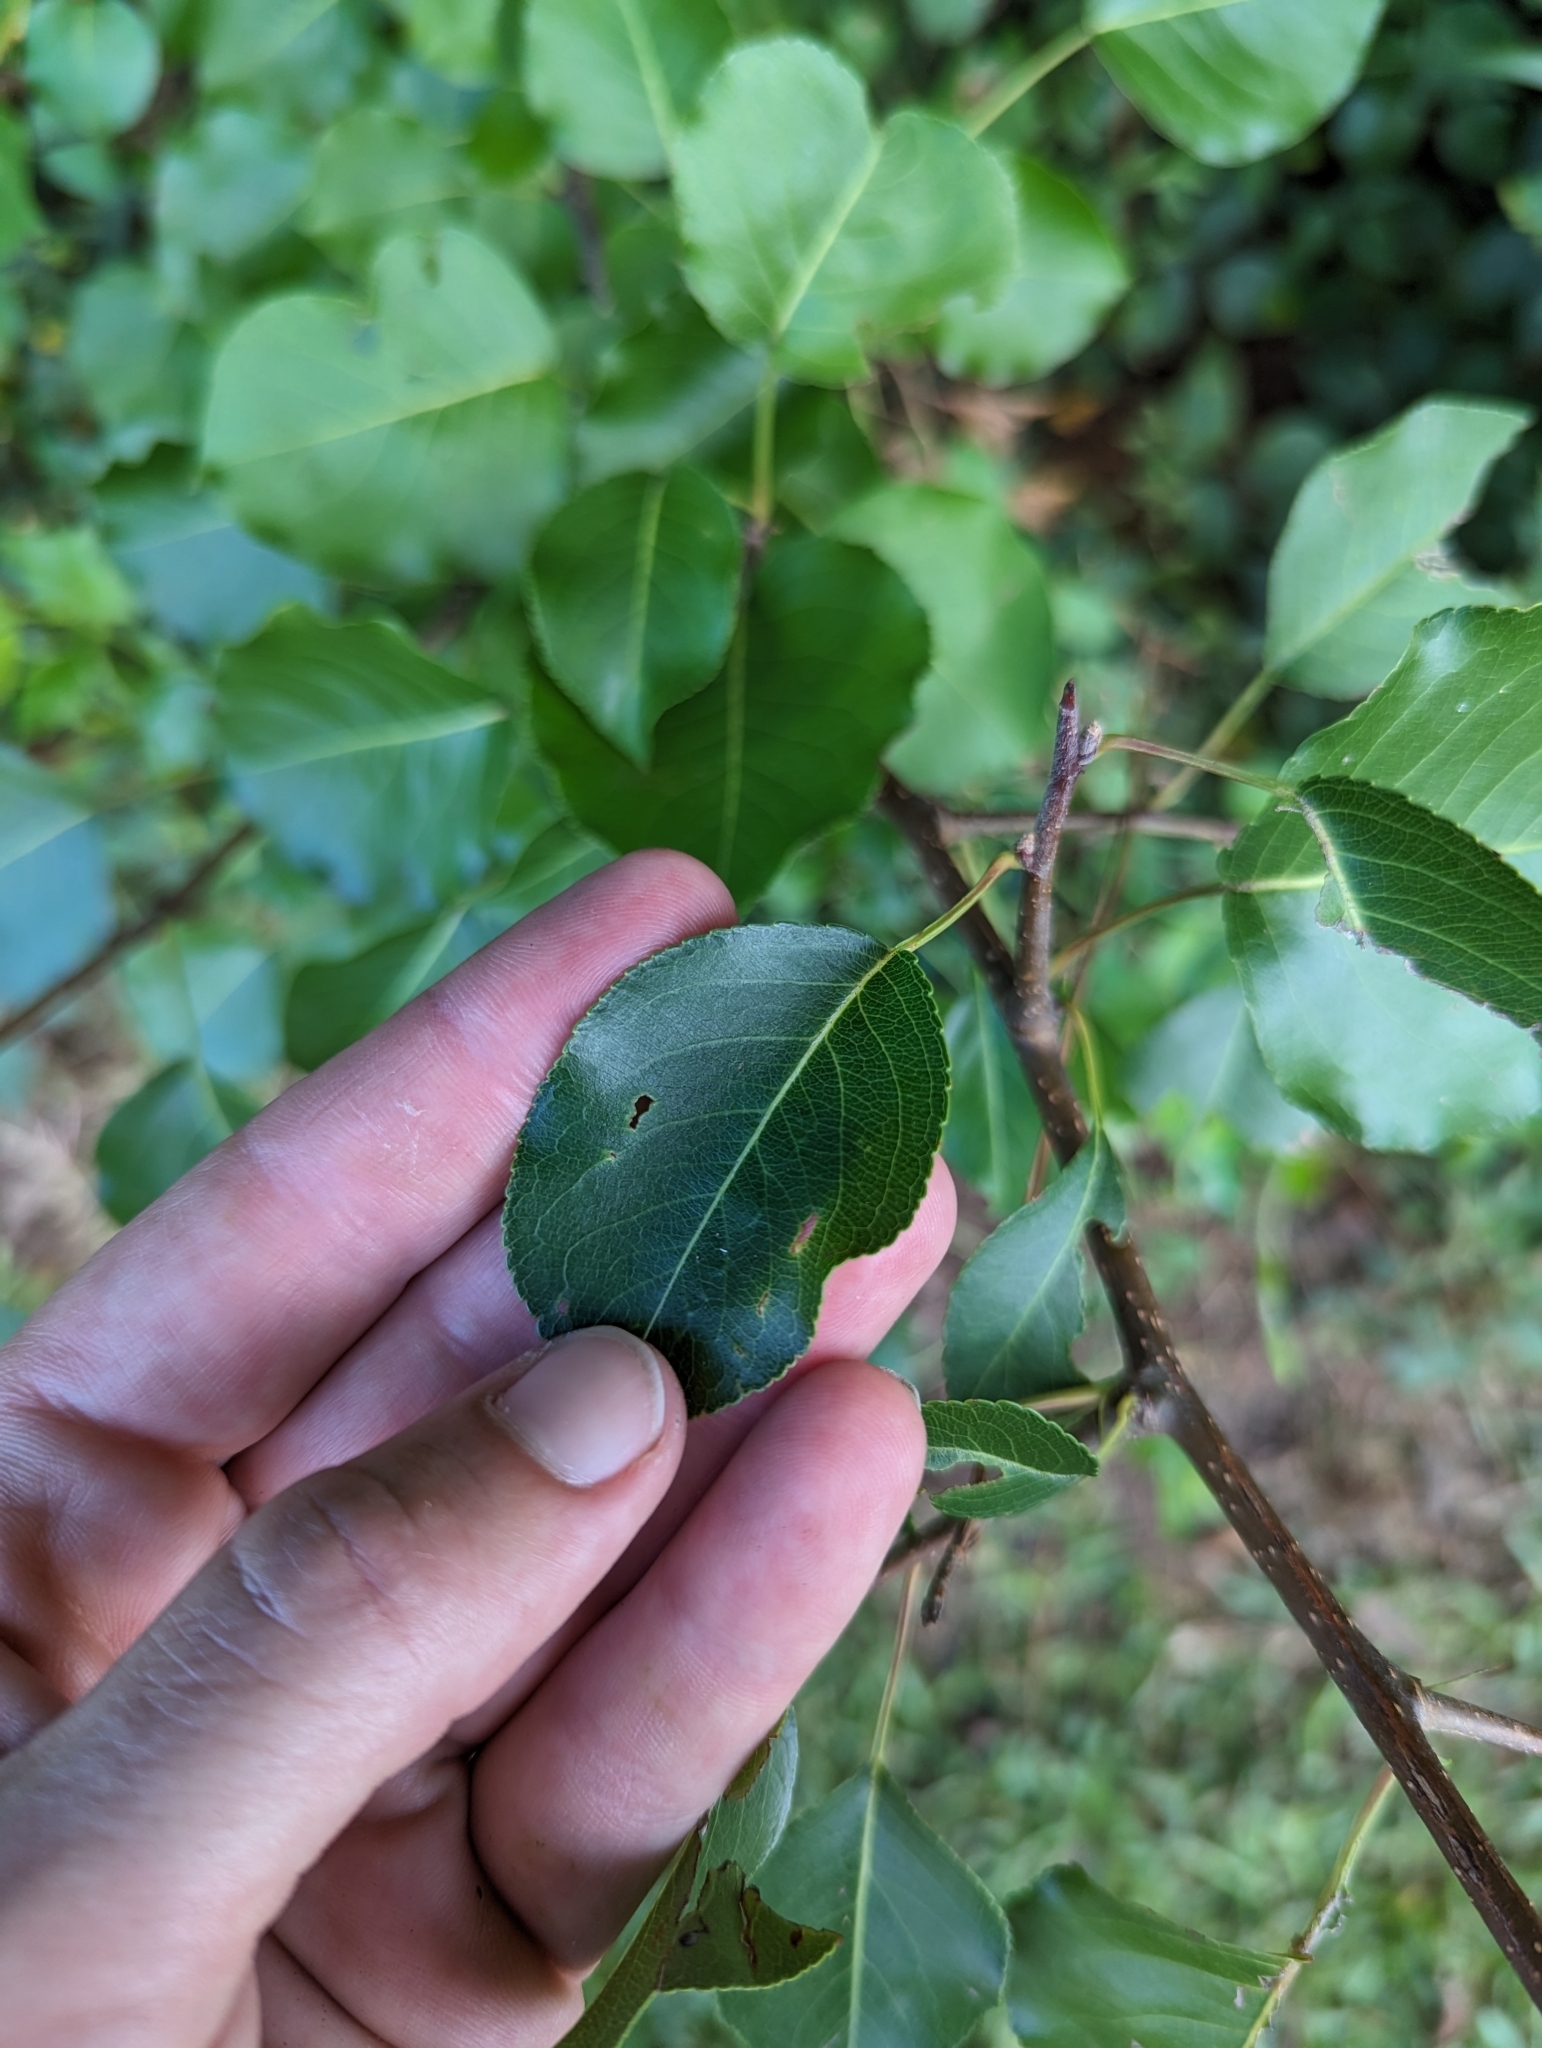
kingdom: Plantae
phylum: Tracheophyta
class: Magnoliopsida
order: Rosales
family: Rosaceae
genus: Pyrus
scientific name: Pyrus calleryana
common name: Callery pear
